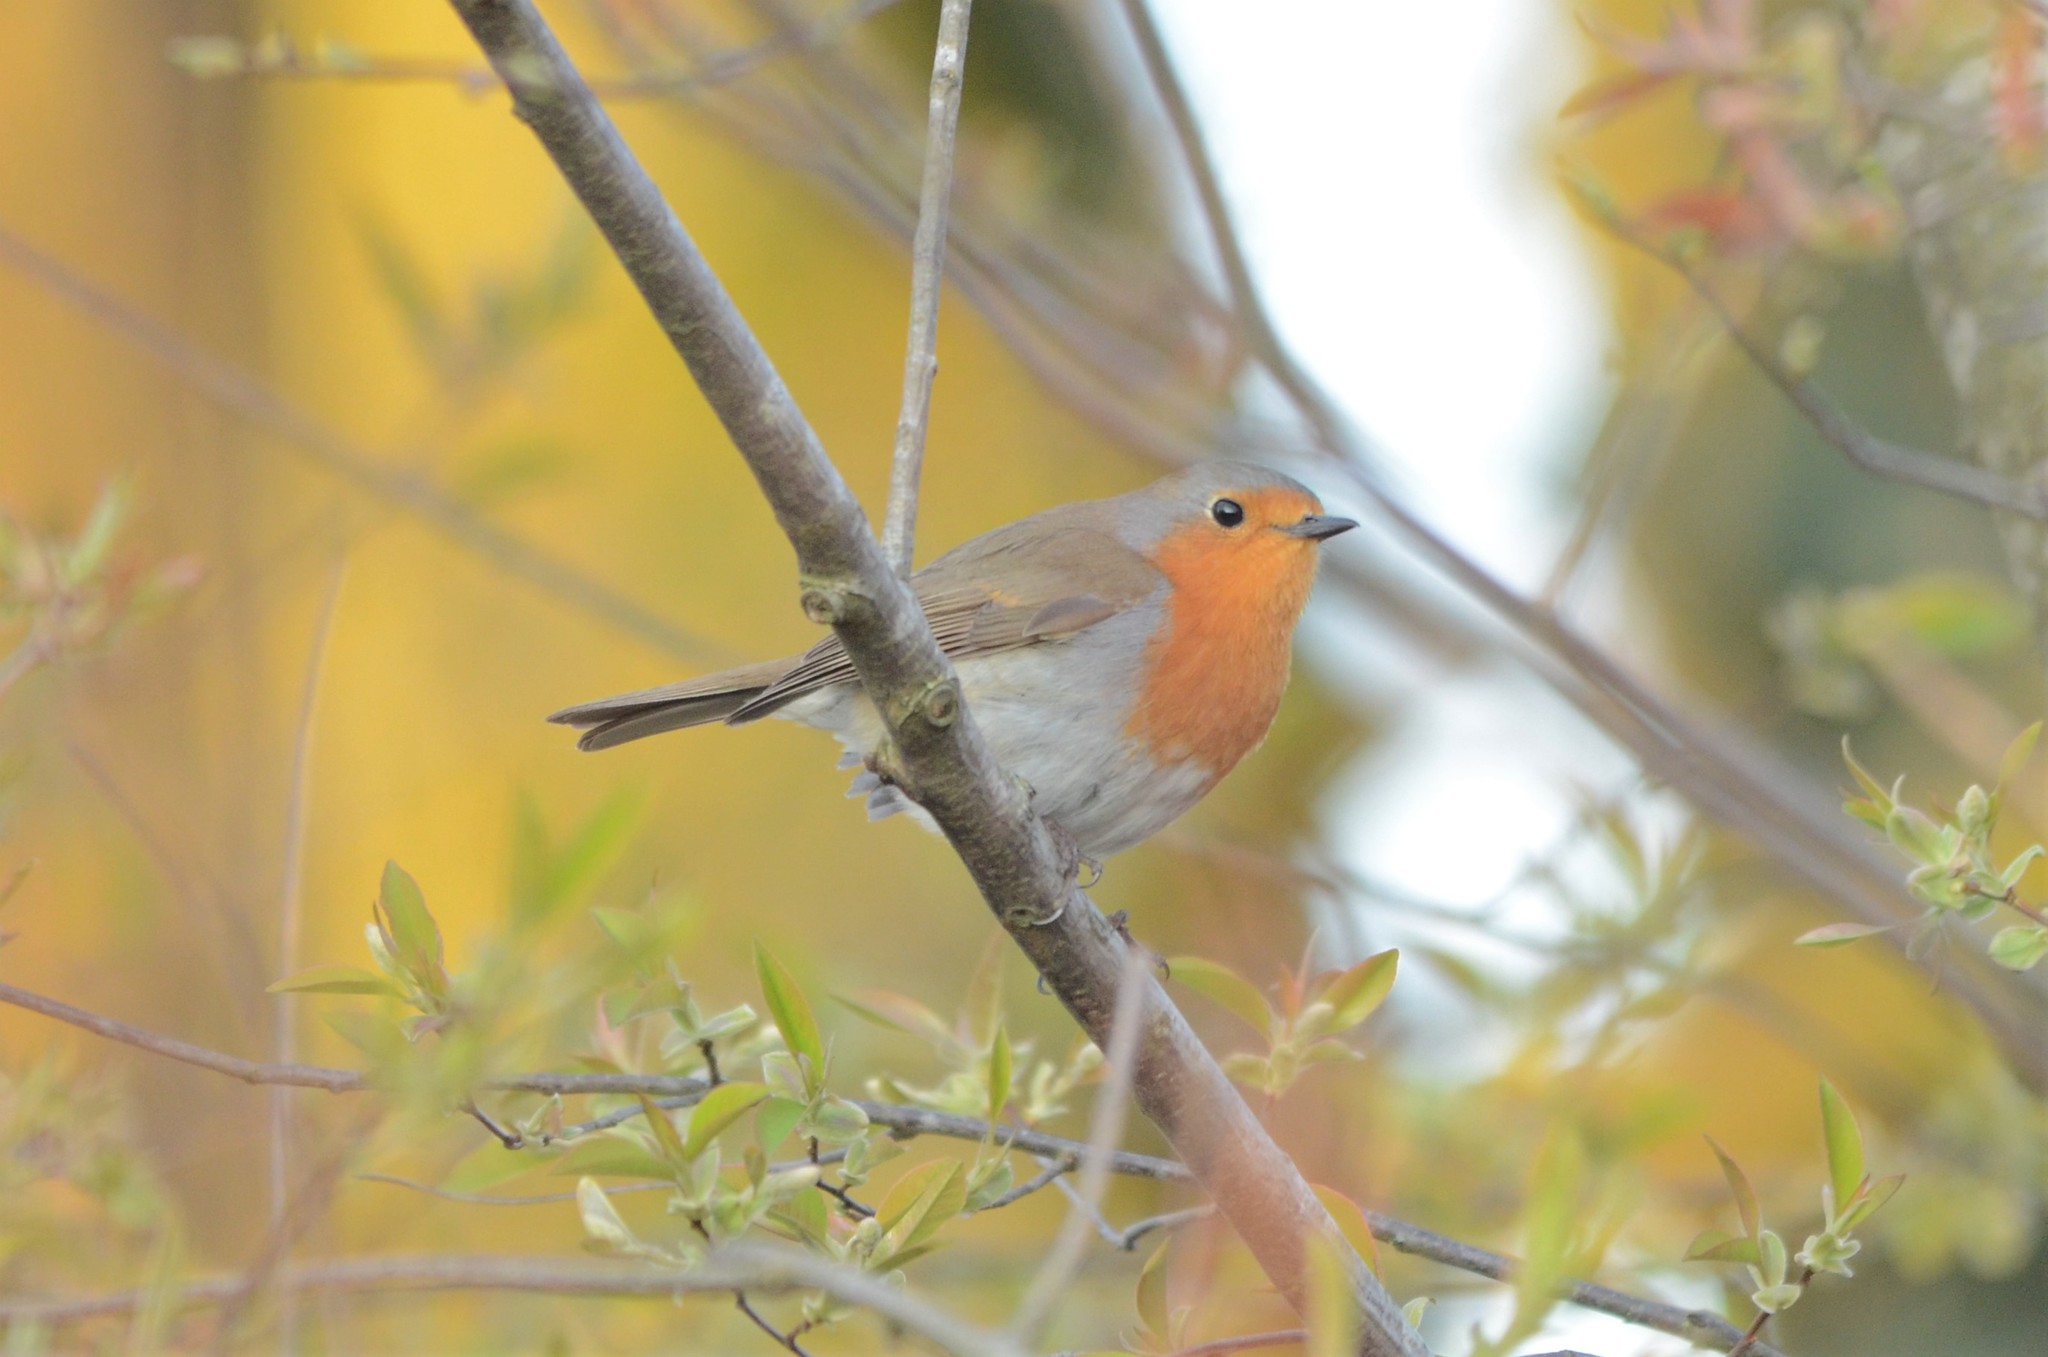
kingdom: Animalia
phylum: Chordata
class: Aves
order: Passeriformes
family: Muscicapidae
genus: Erithacus
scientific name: Erithacus rubecula
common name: European robin
